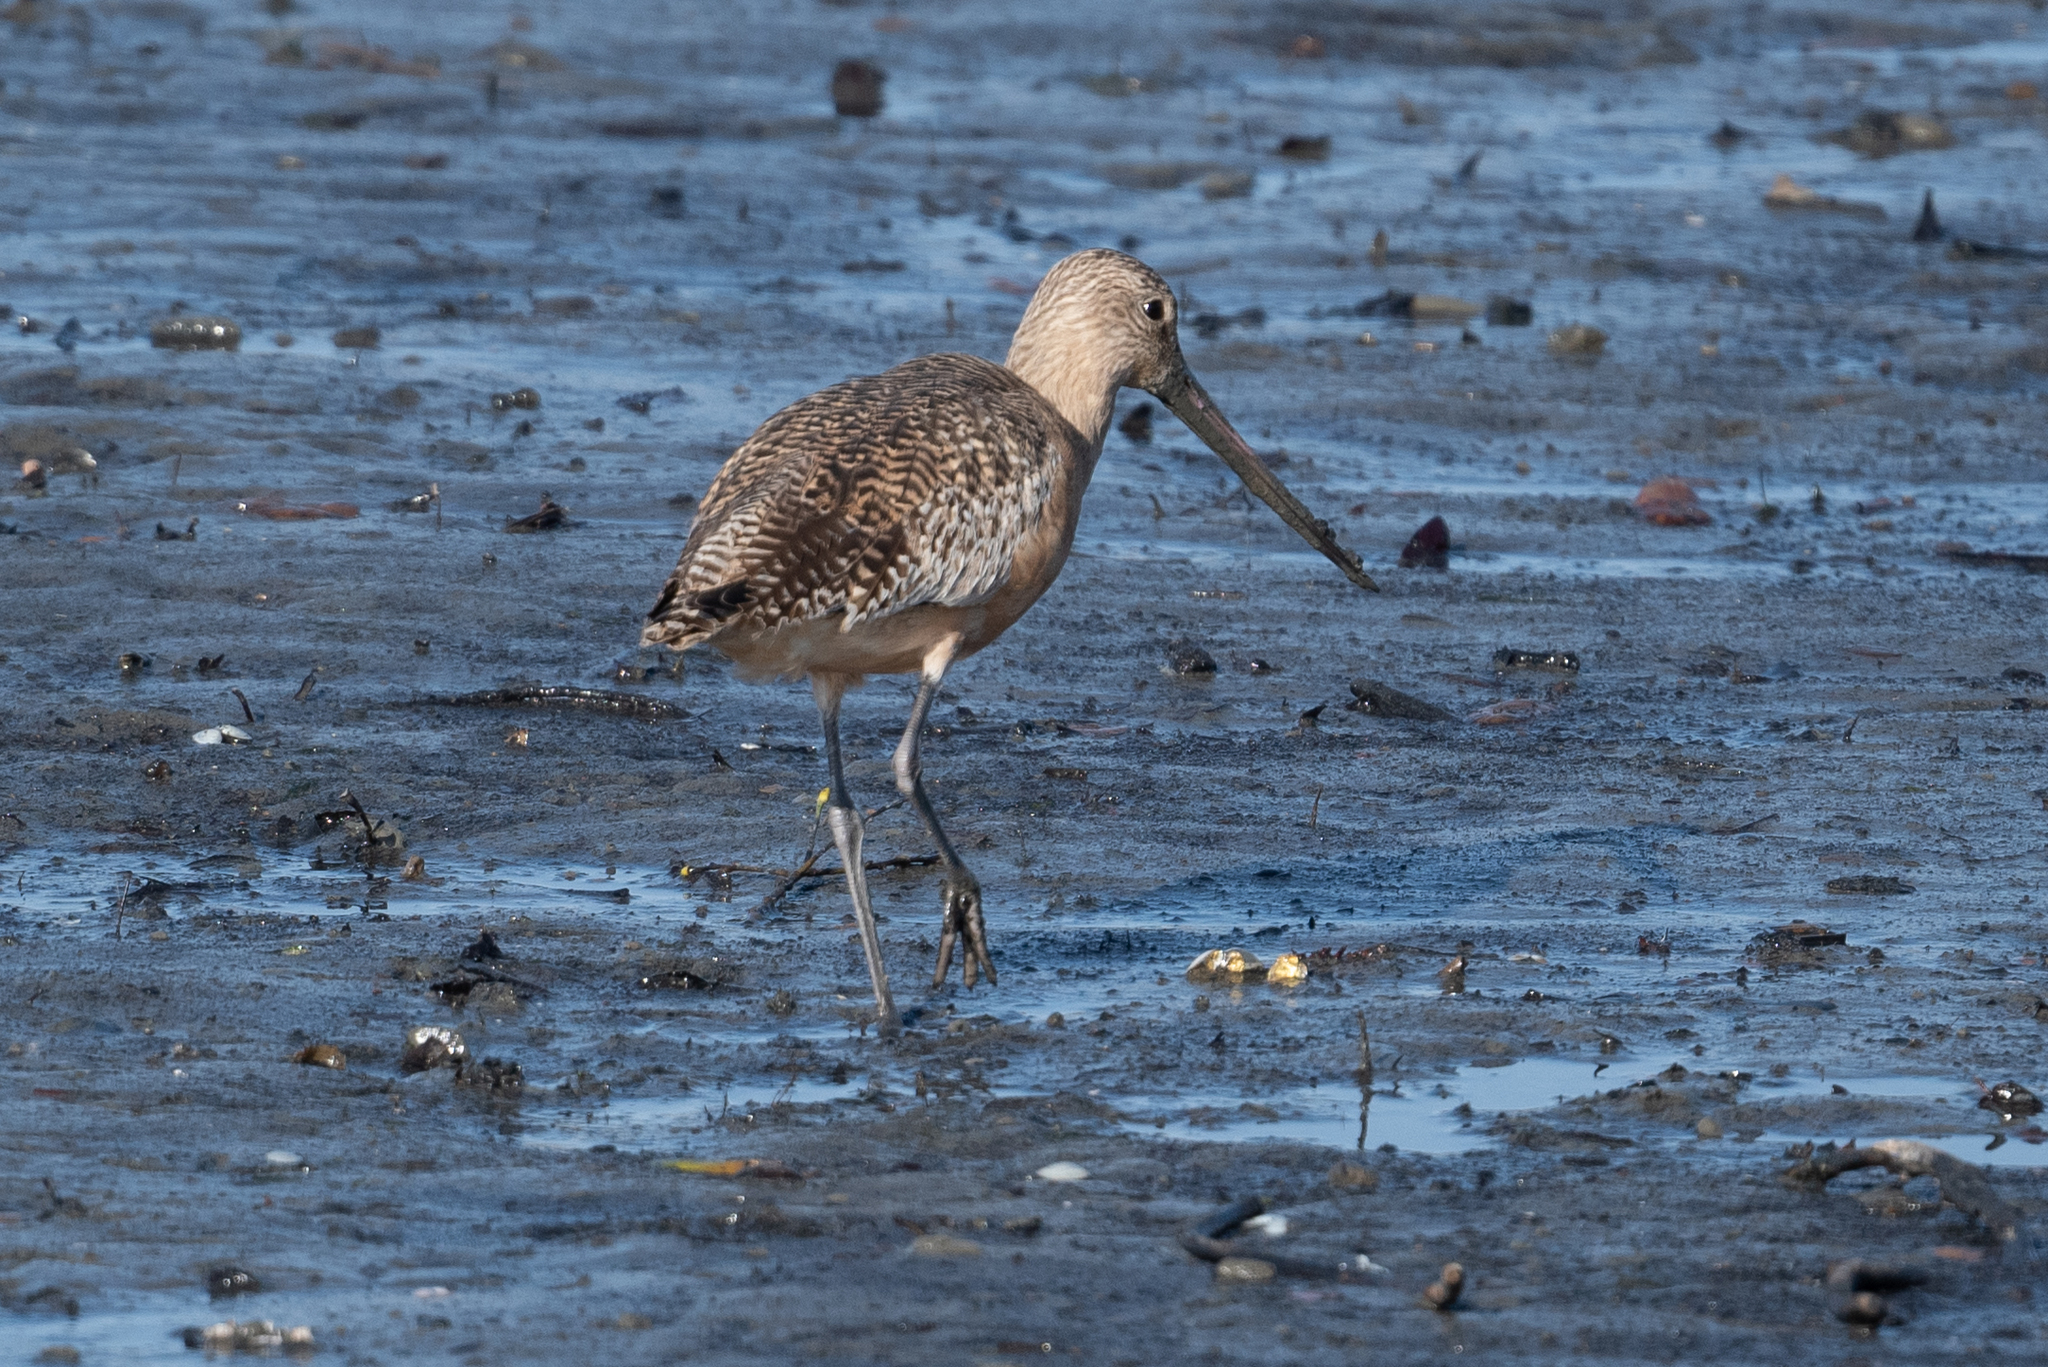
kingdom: Animalia
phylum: Chordata
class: Aves
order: Charadriiformes
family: Scolopacidae
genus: Limosa
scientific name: Limosa fedoa
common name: Marbled godwit
